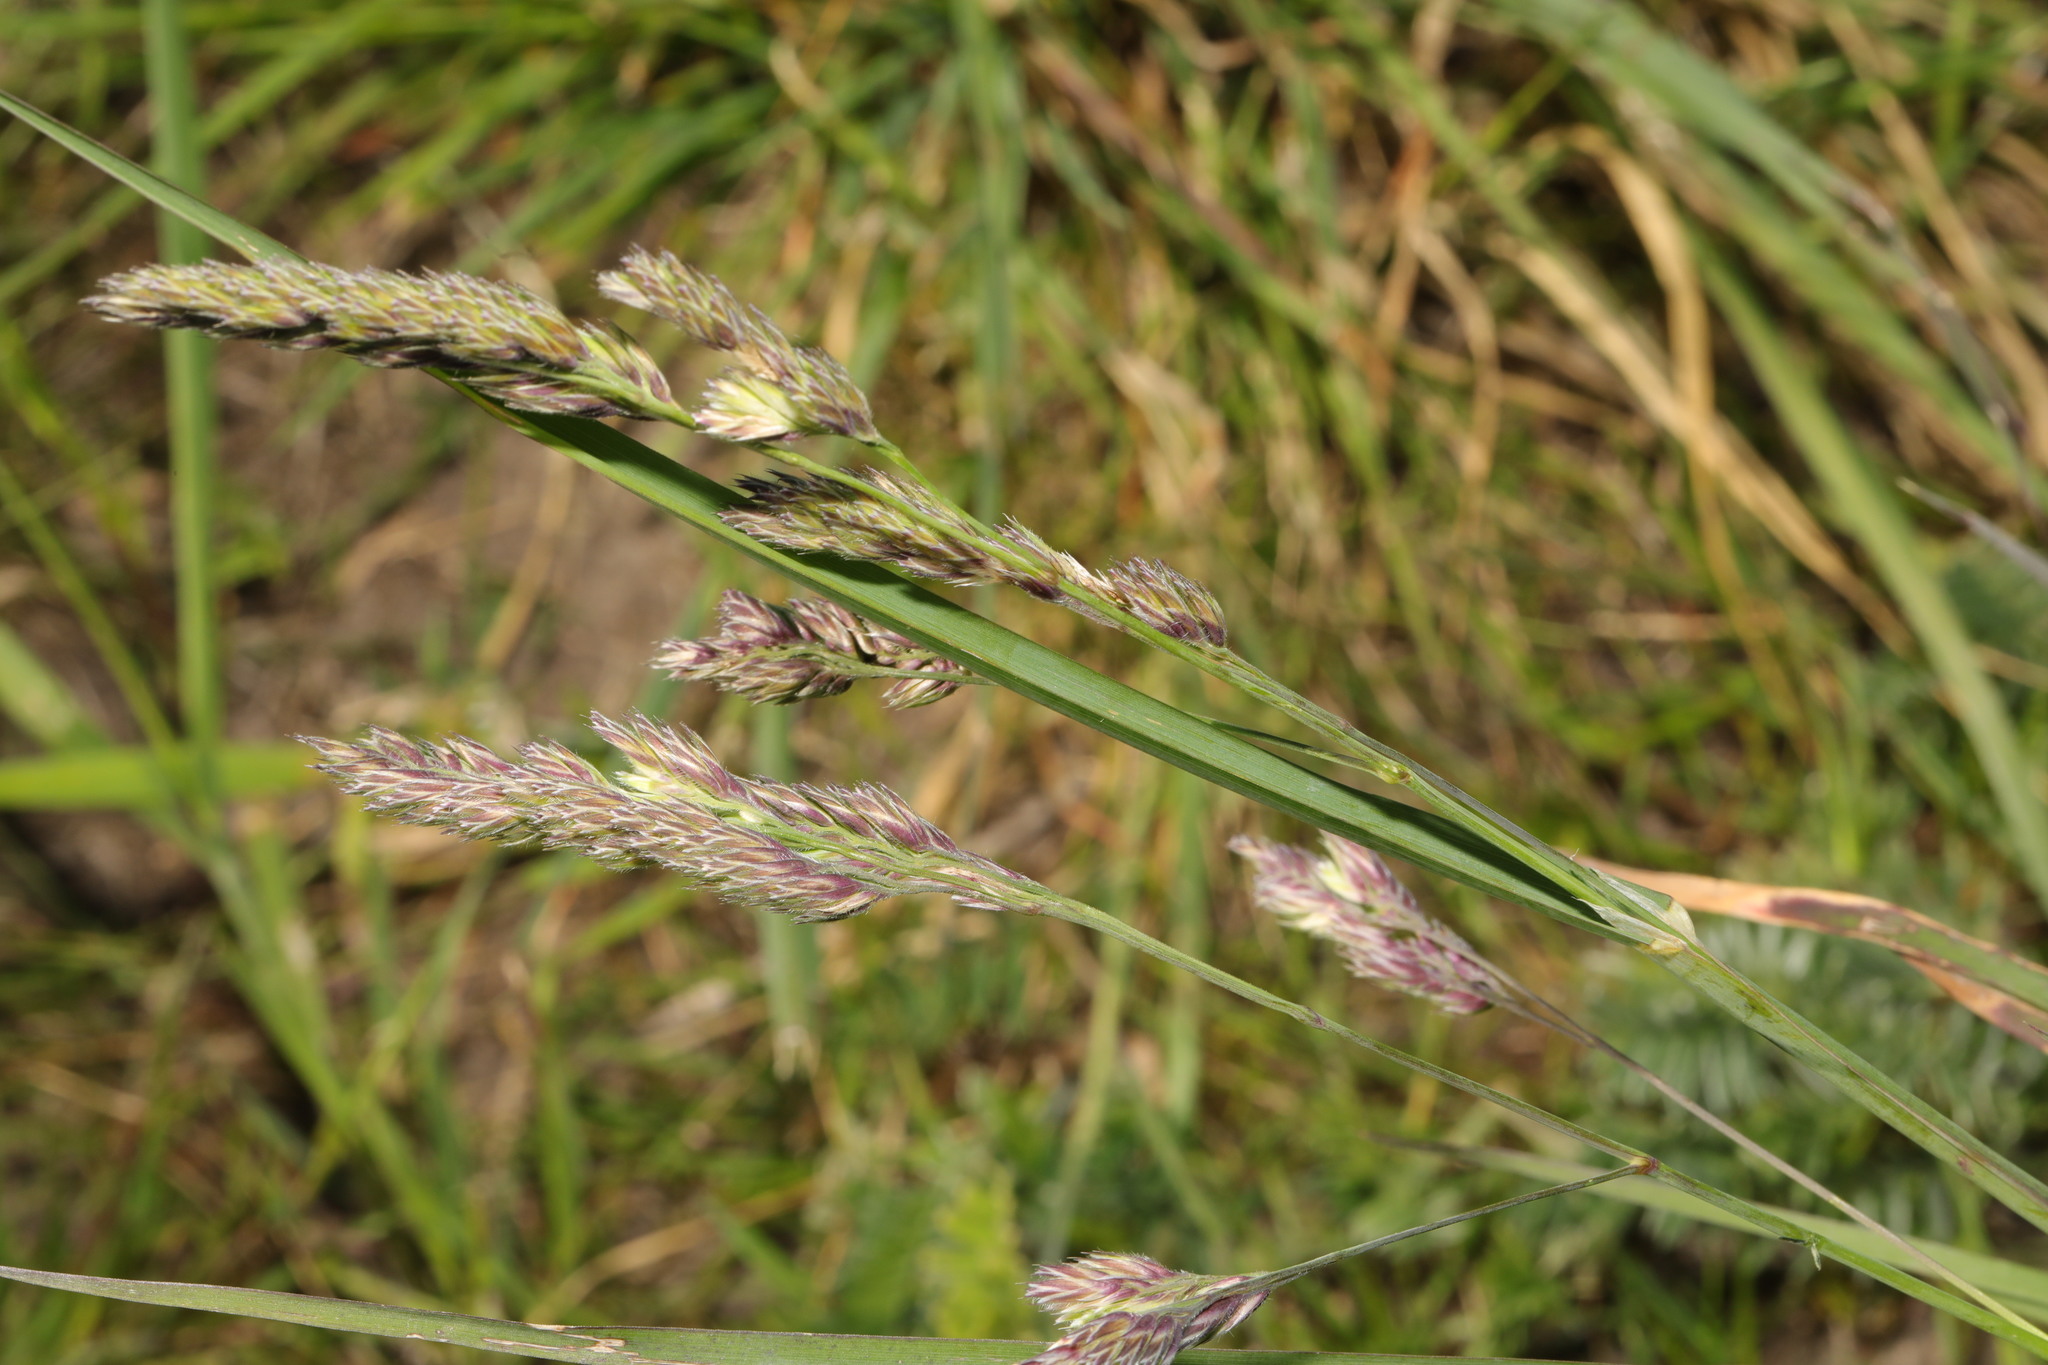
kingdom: Plantae
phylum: Tracheophyta
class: Liliopsida
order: Poales
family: Poaceae
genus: Dactylis
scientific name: Dactylis glomerata
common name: Orchardgrass
